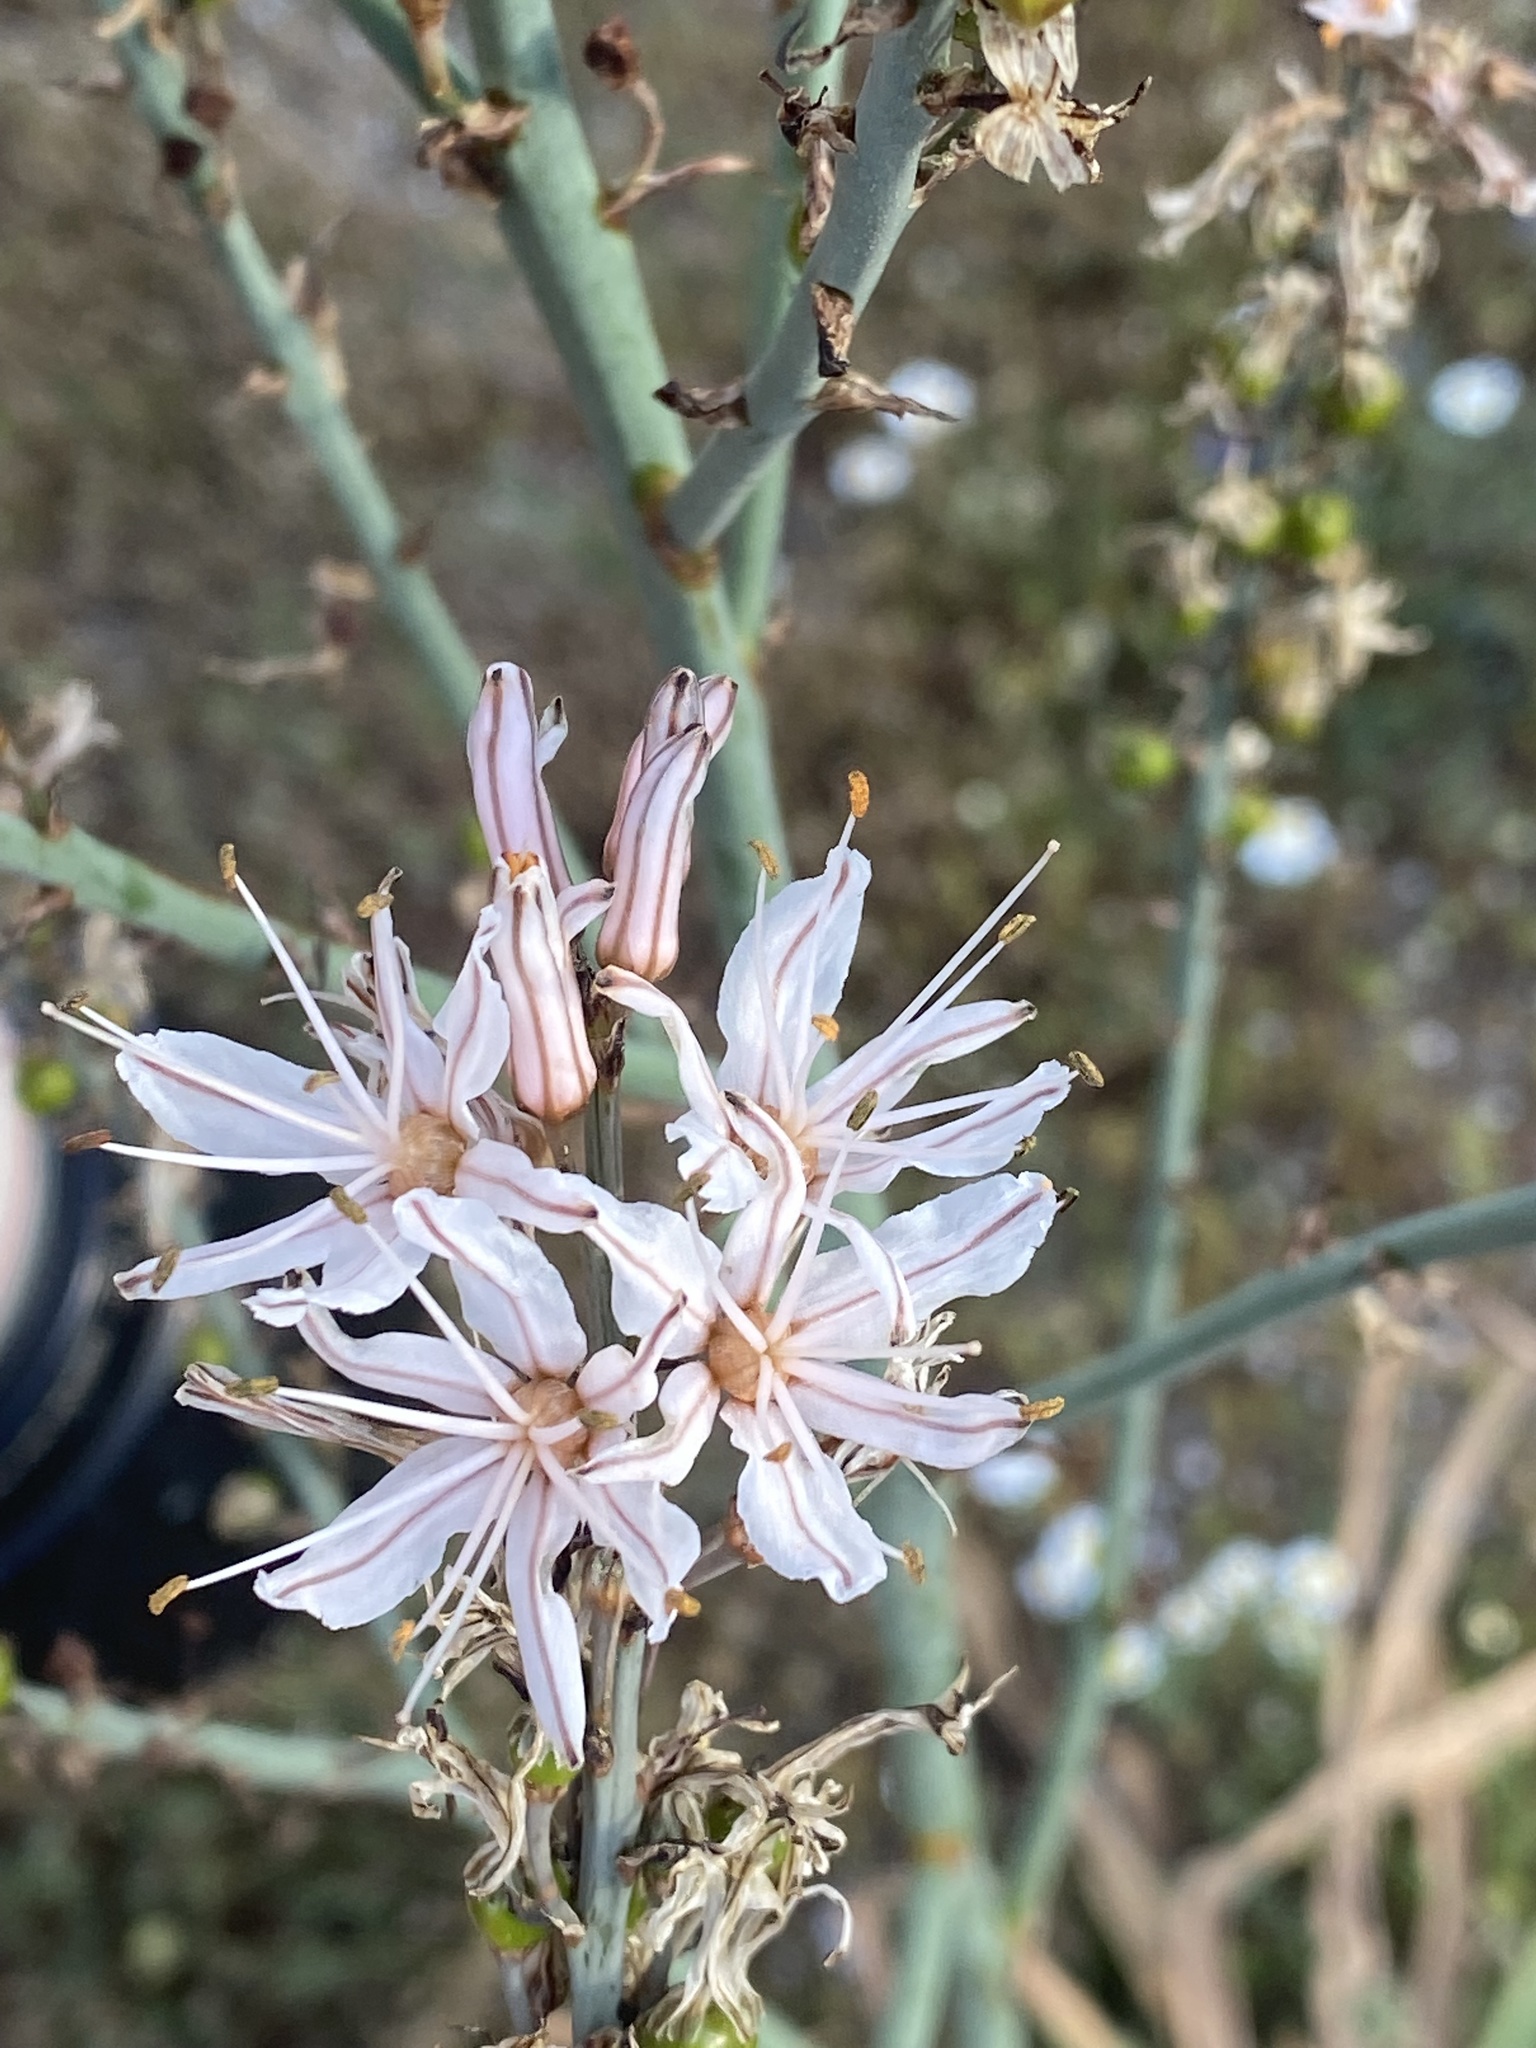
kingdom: Plantae
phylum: Tracheophyta
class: Liliopsida
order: Asparagales
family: Asphodelaceae
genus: Asphodelus
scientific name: Asphodelus ramosus
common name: Silverrod
